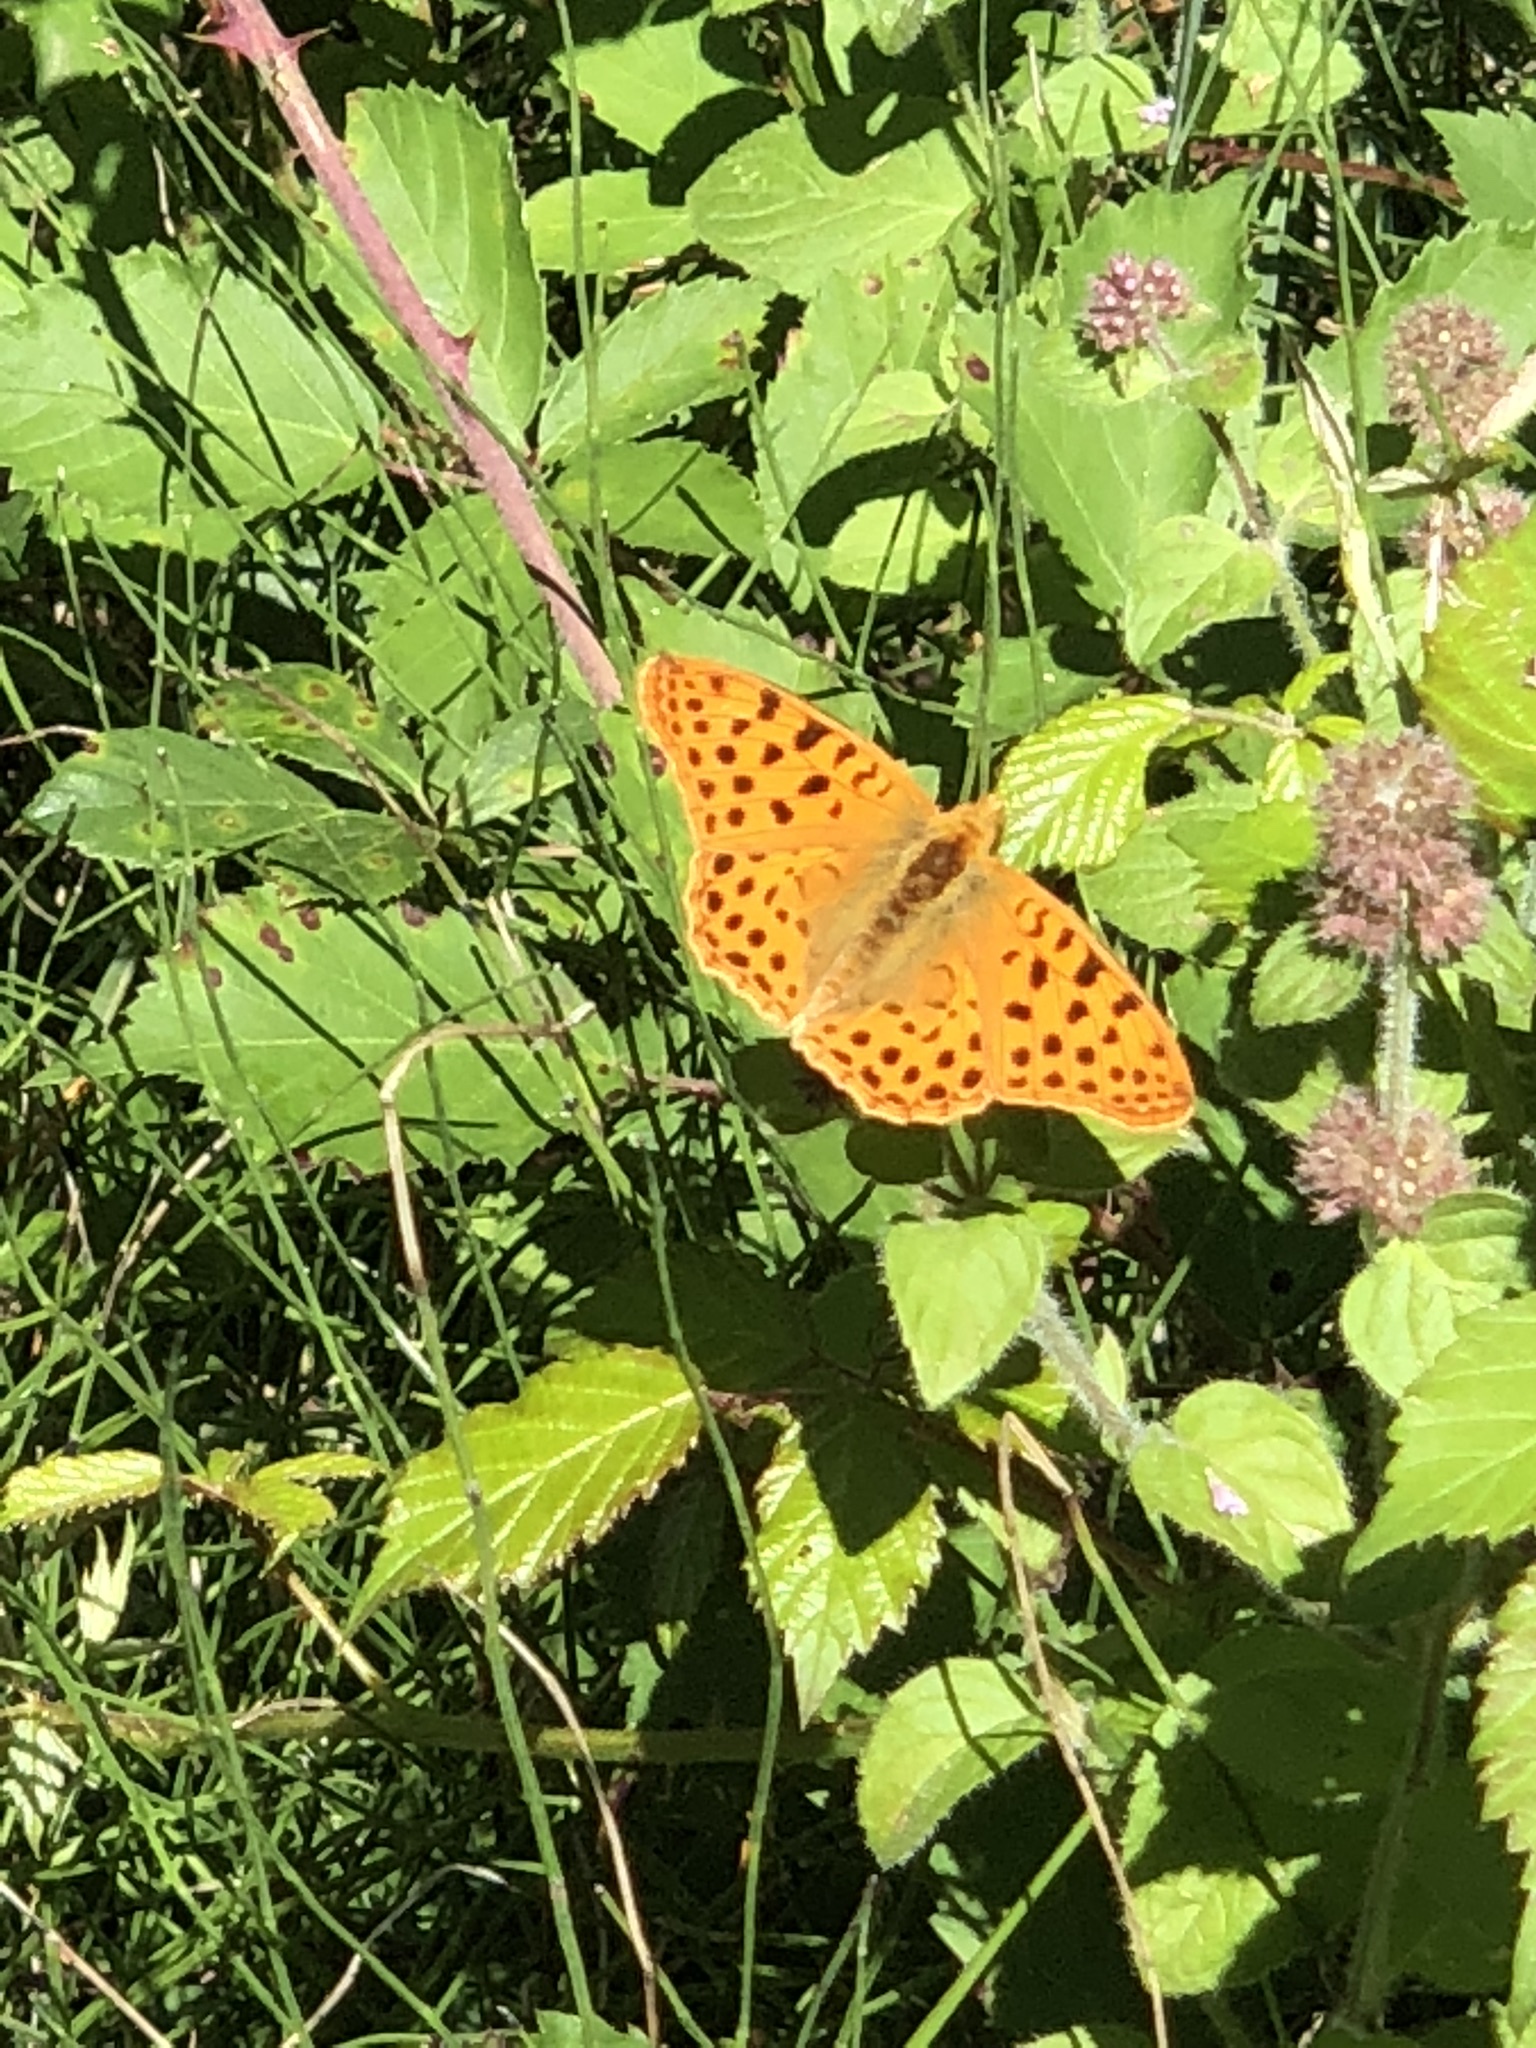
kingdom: Animalia
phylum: Arthropoda
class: Insecta
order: Lepidoptera
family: Nymphalidae
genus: Issoria
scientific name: Issoria lathonia
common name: Queen of spain fritillary
